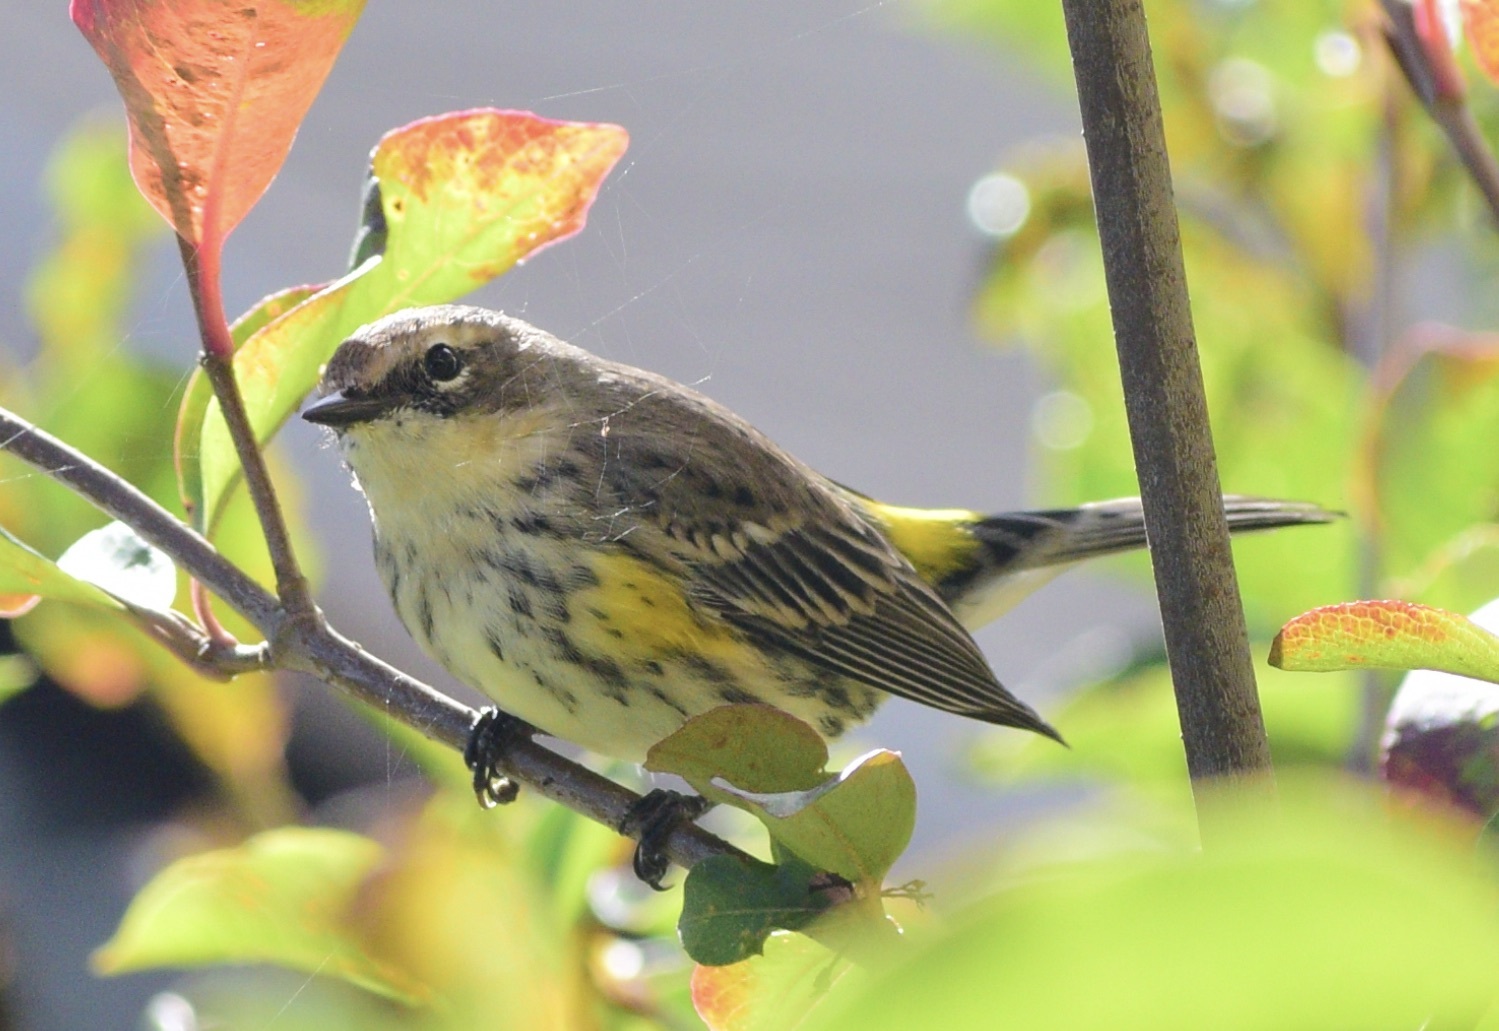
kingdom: Animalia
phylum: Chordata
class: Aves
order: Passeriformes
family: Parulidae
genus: Setophaga
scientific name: Setophaga coronata
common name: Myrtle warbler
